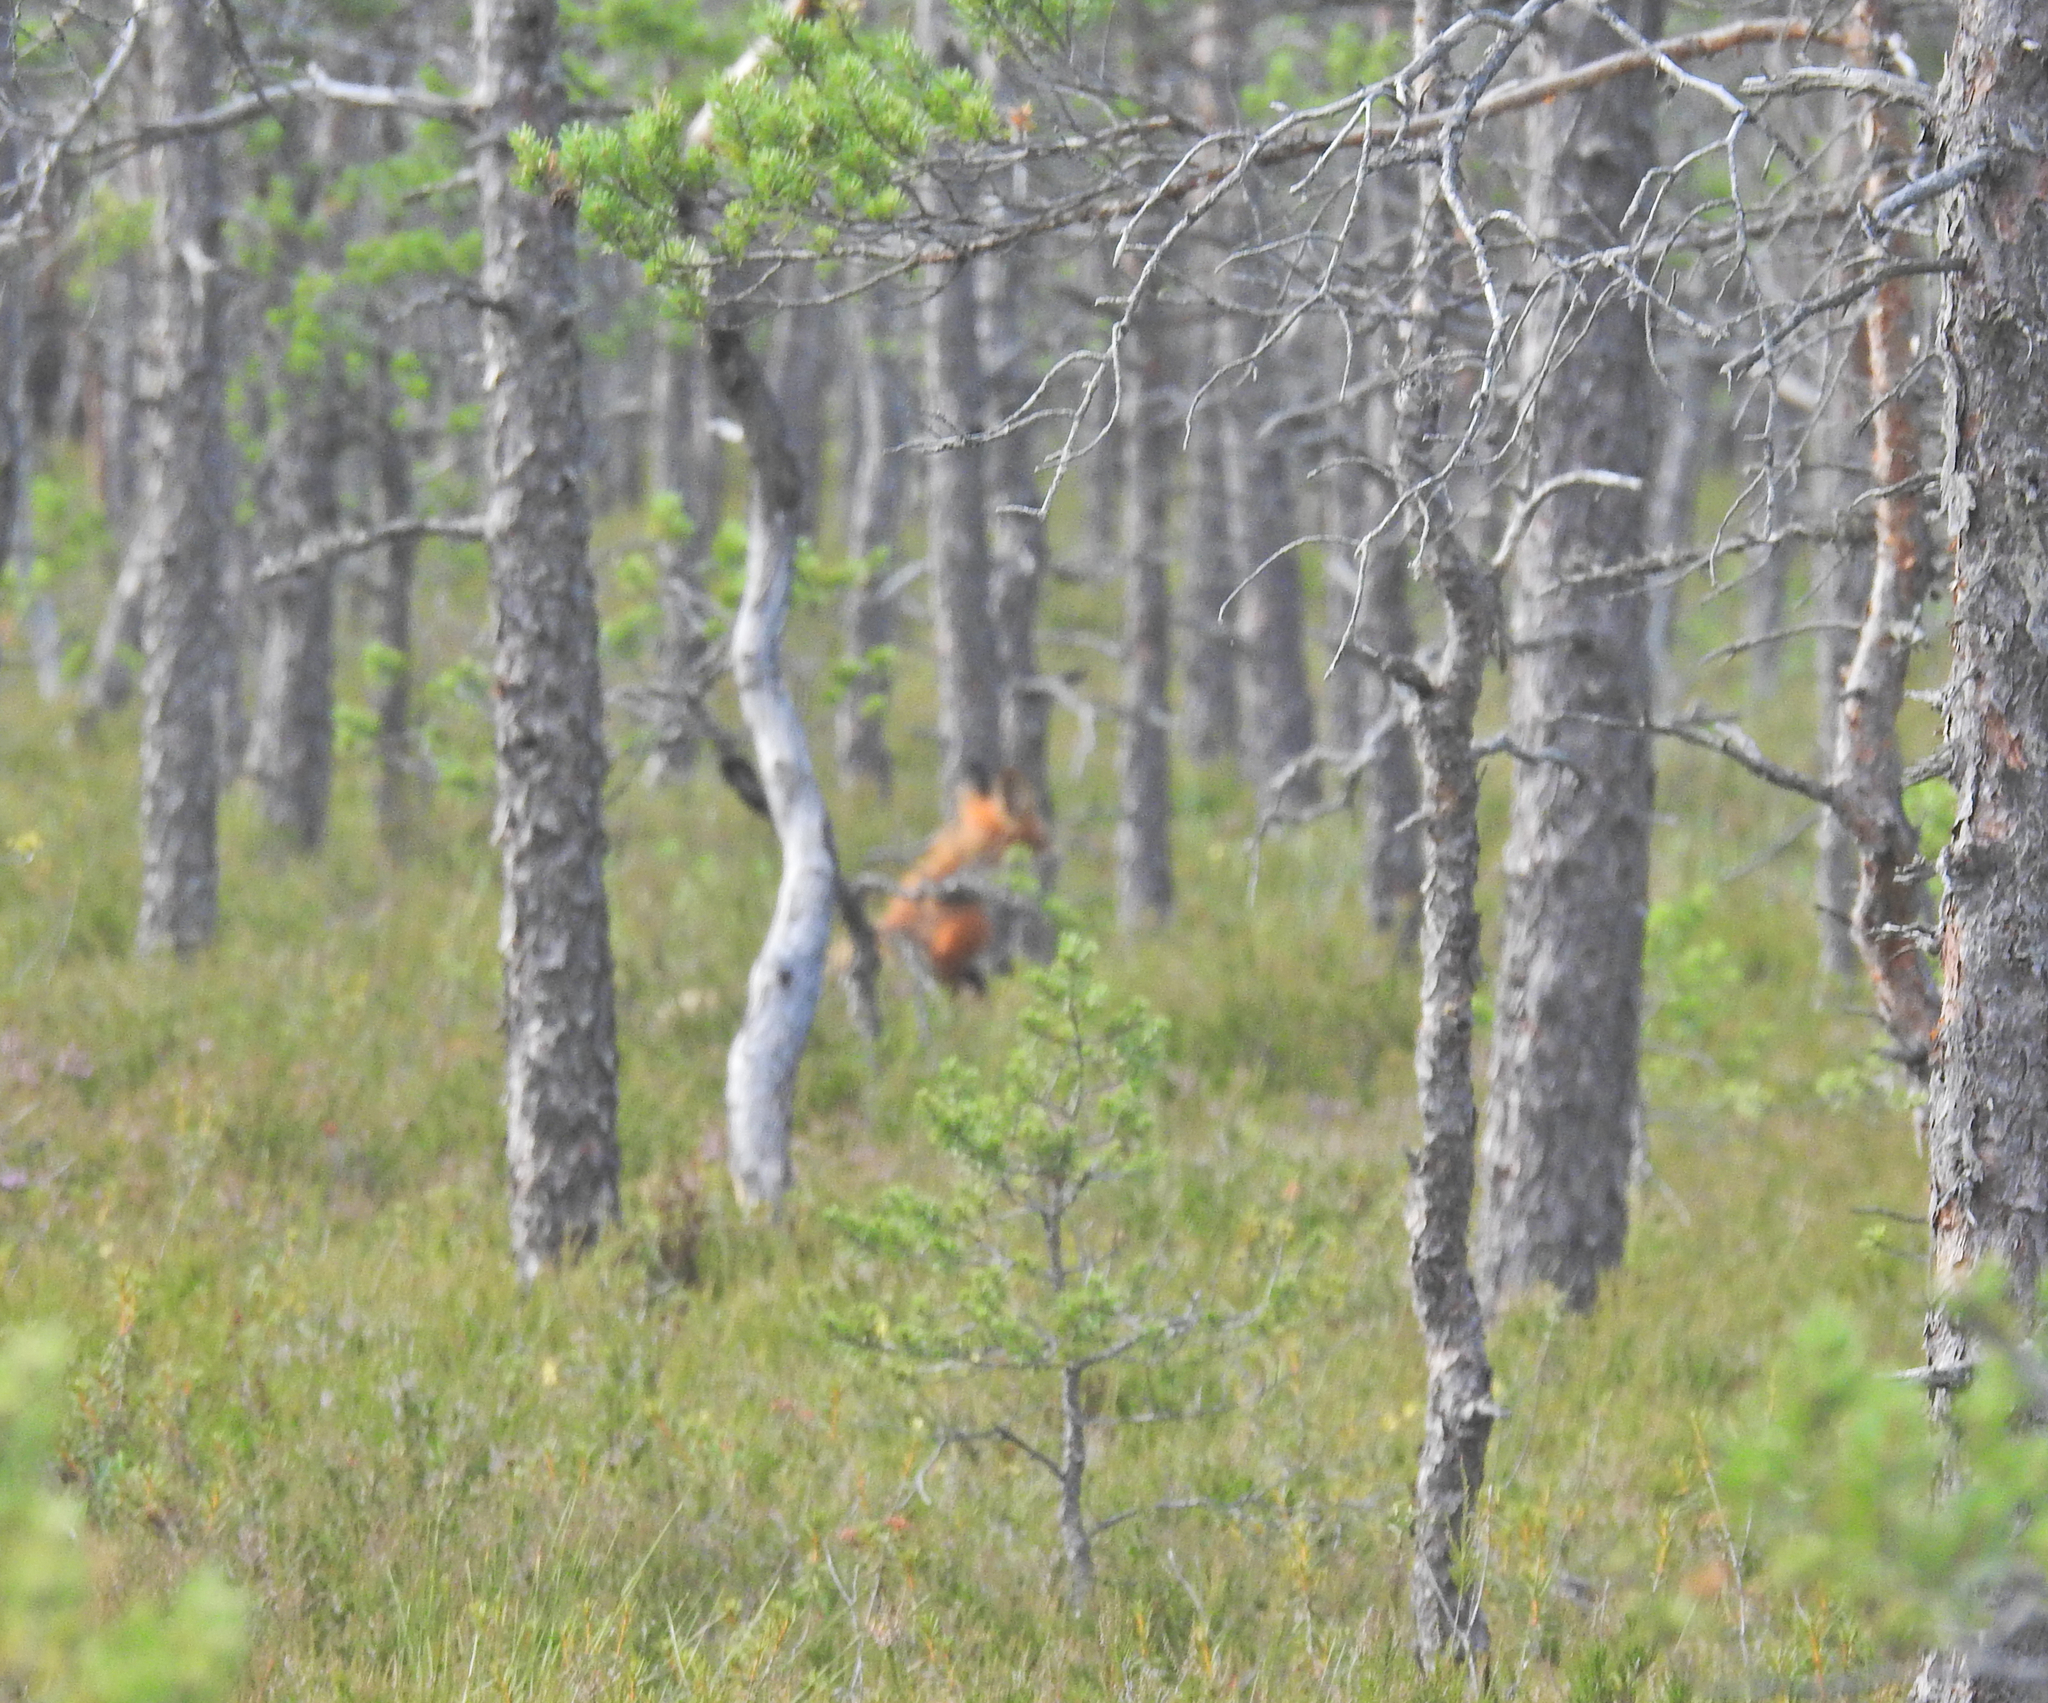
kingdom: Animalia
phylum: Chordata
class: Mammalia
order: Carnivora
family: Canidae
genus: Vulpes
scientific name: Vulpes vulpes
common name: Red fox
